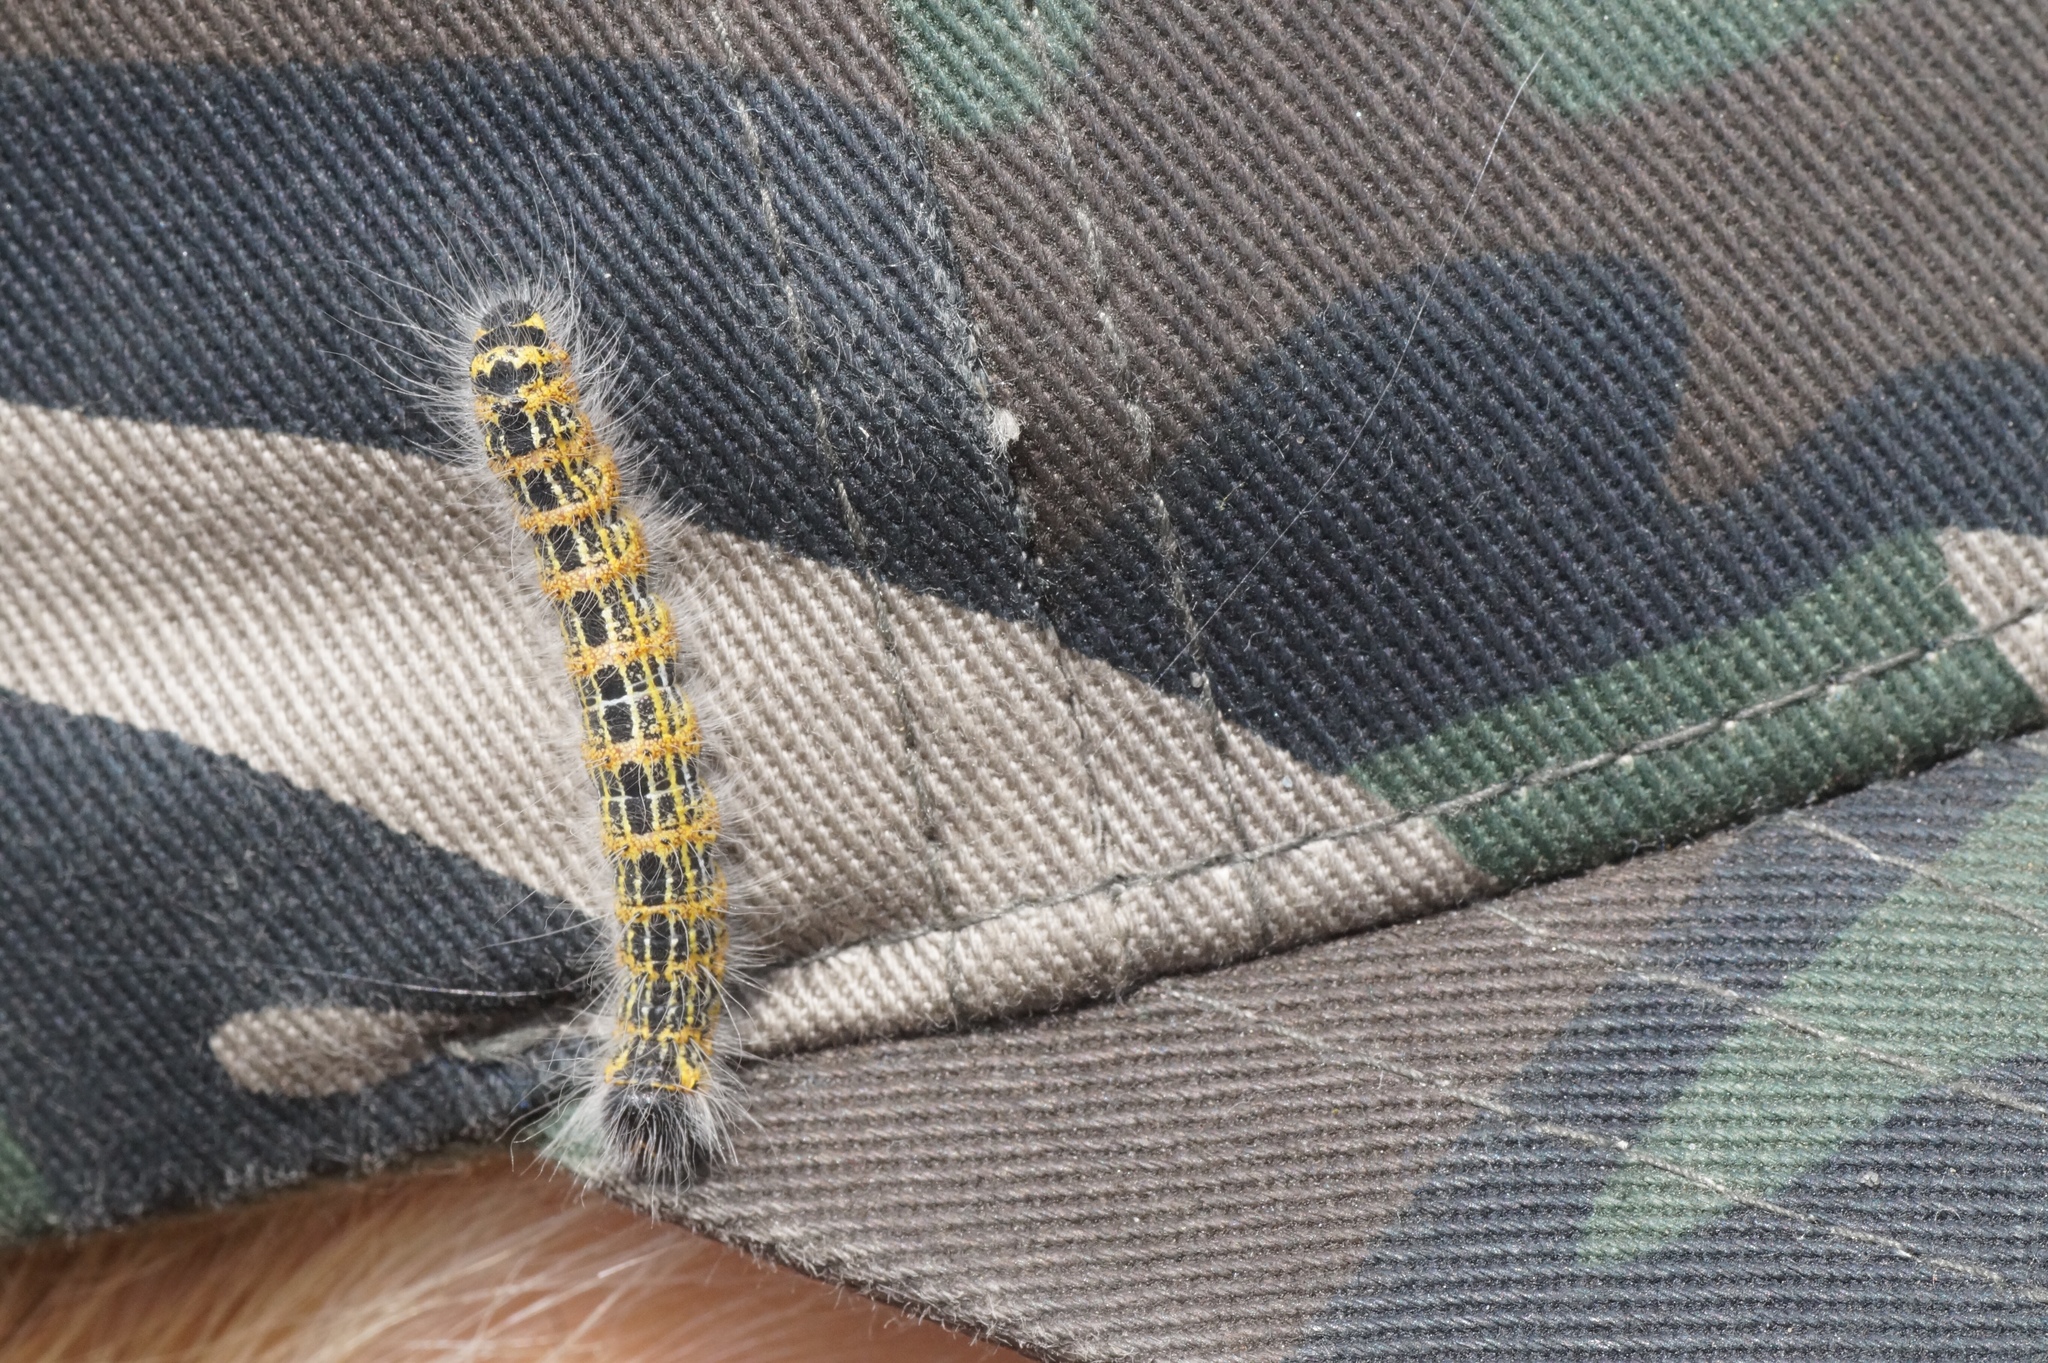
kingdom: Animalia
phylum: Arthropoda
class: Insecta
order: Lepidoptera
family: Notodontidae
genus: Phalera
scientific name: Phalera bucephala
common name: Buff-tip
